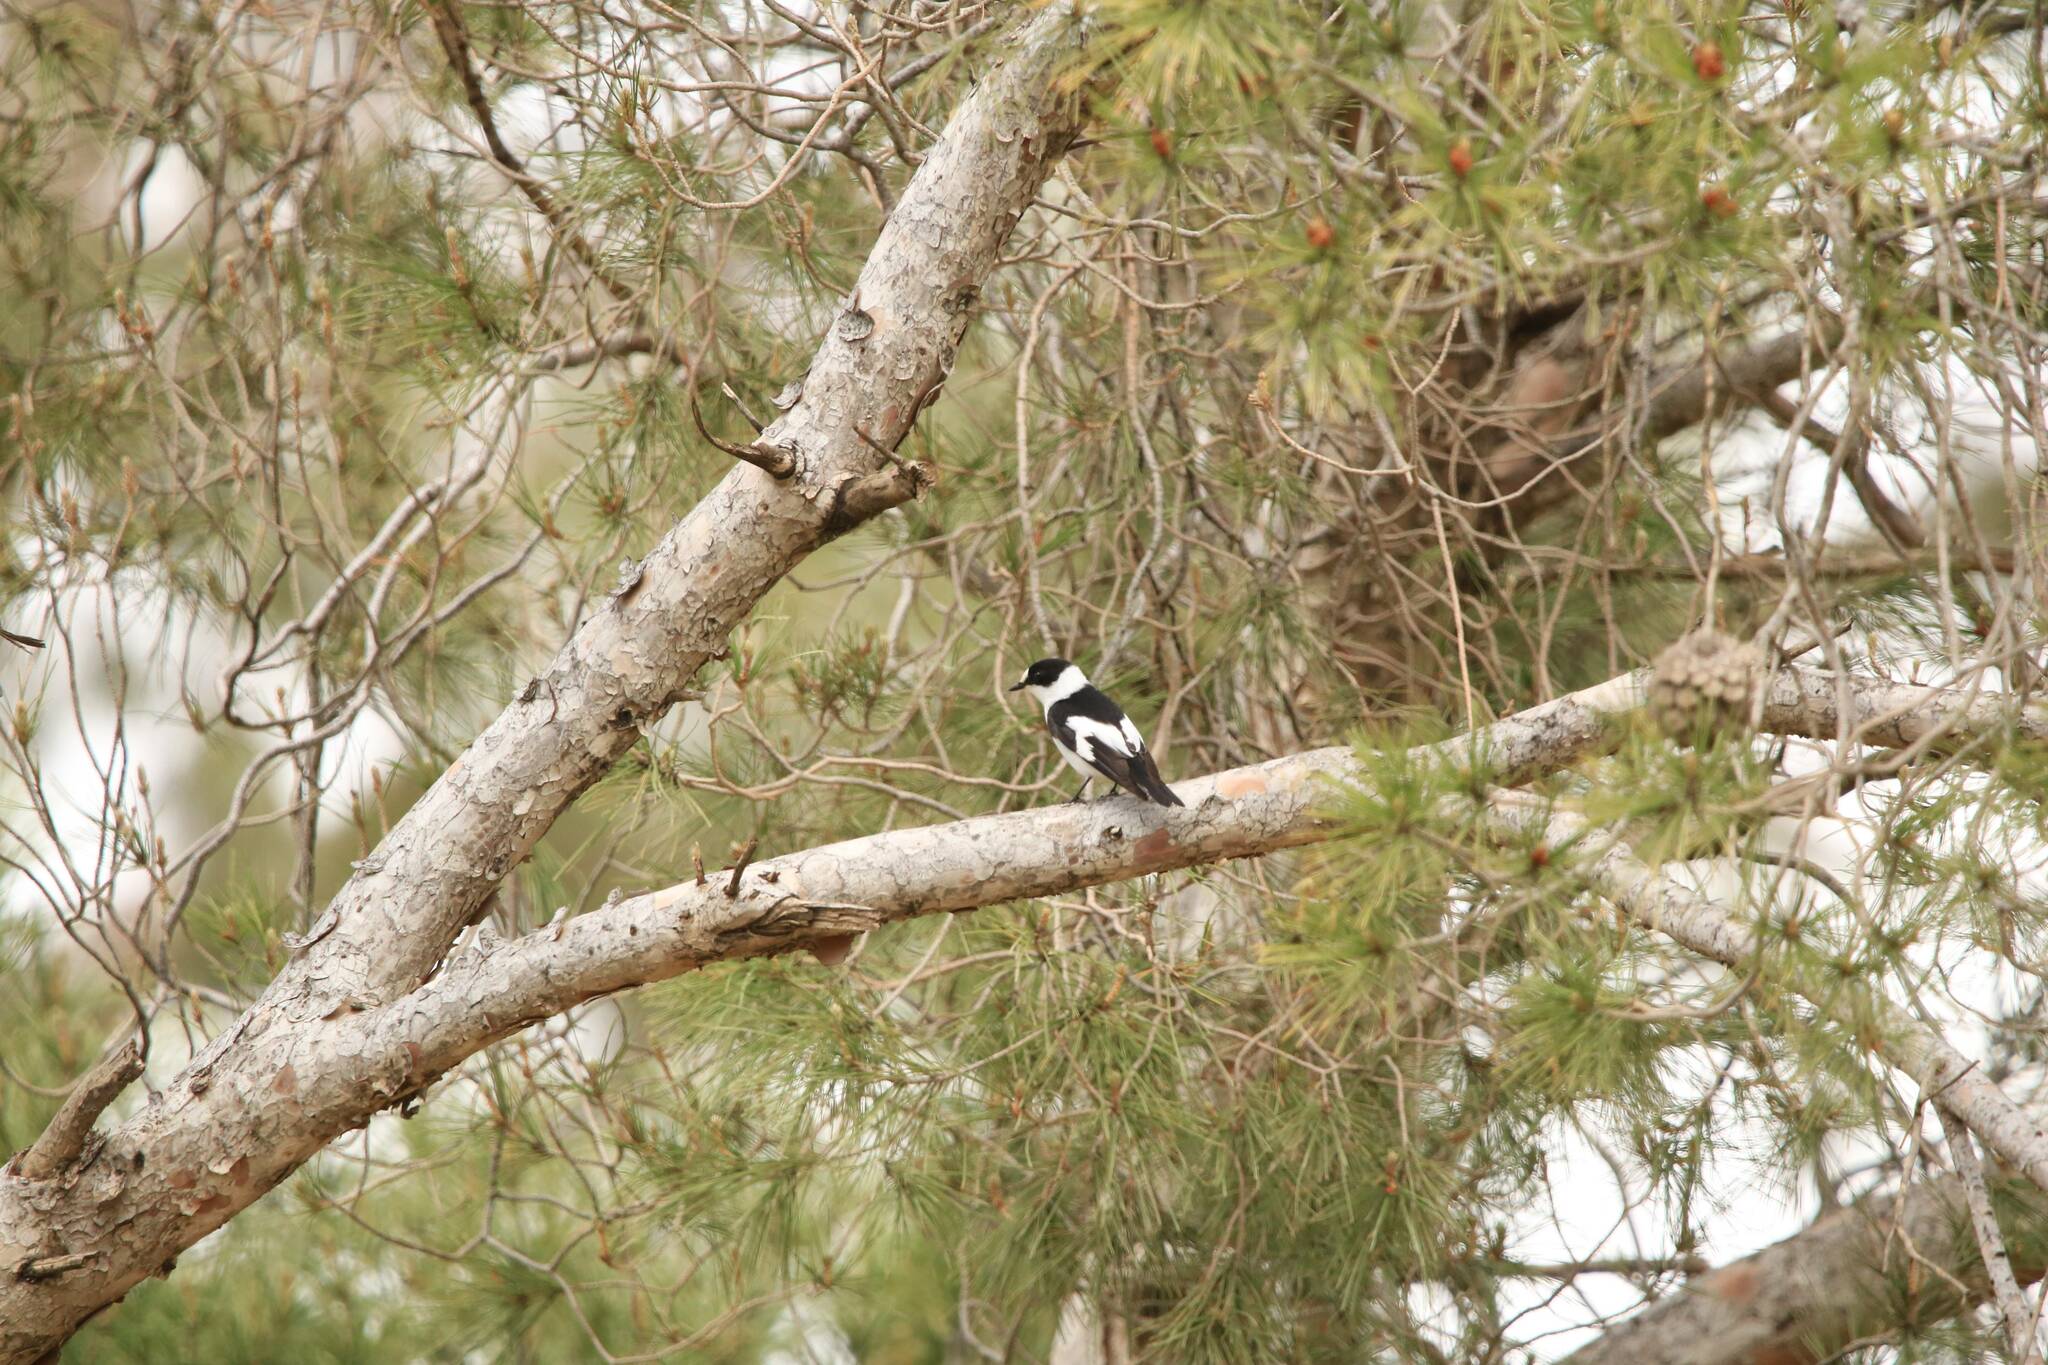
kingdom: Animalia
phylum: Chordata
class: Aves
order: Passeriformes
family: Muscicapidae
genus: Ficedula
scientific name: Ficedula albicollis
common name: Collared flycatcher
